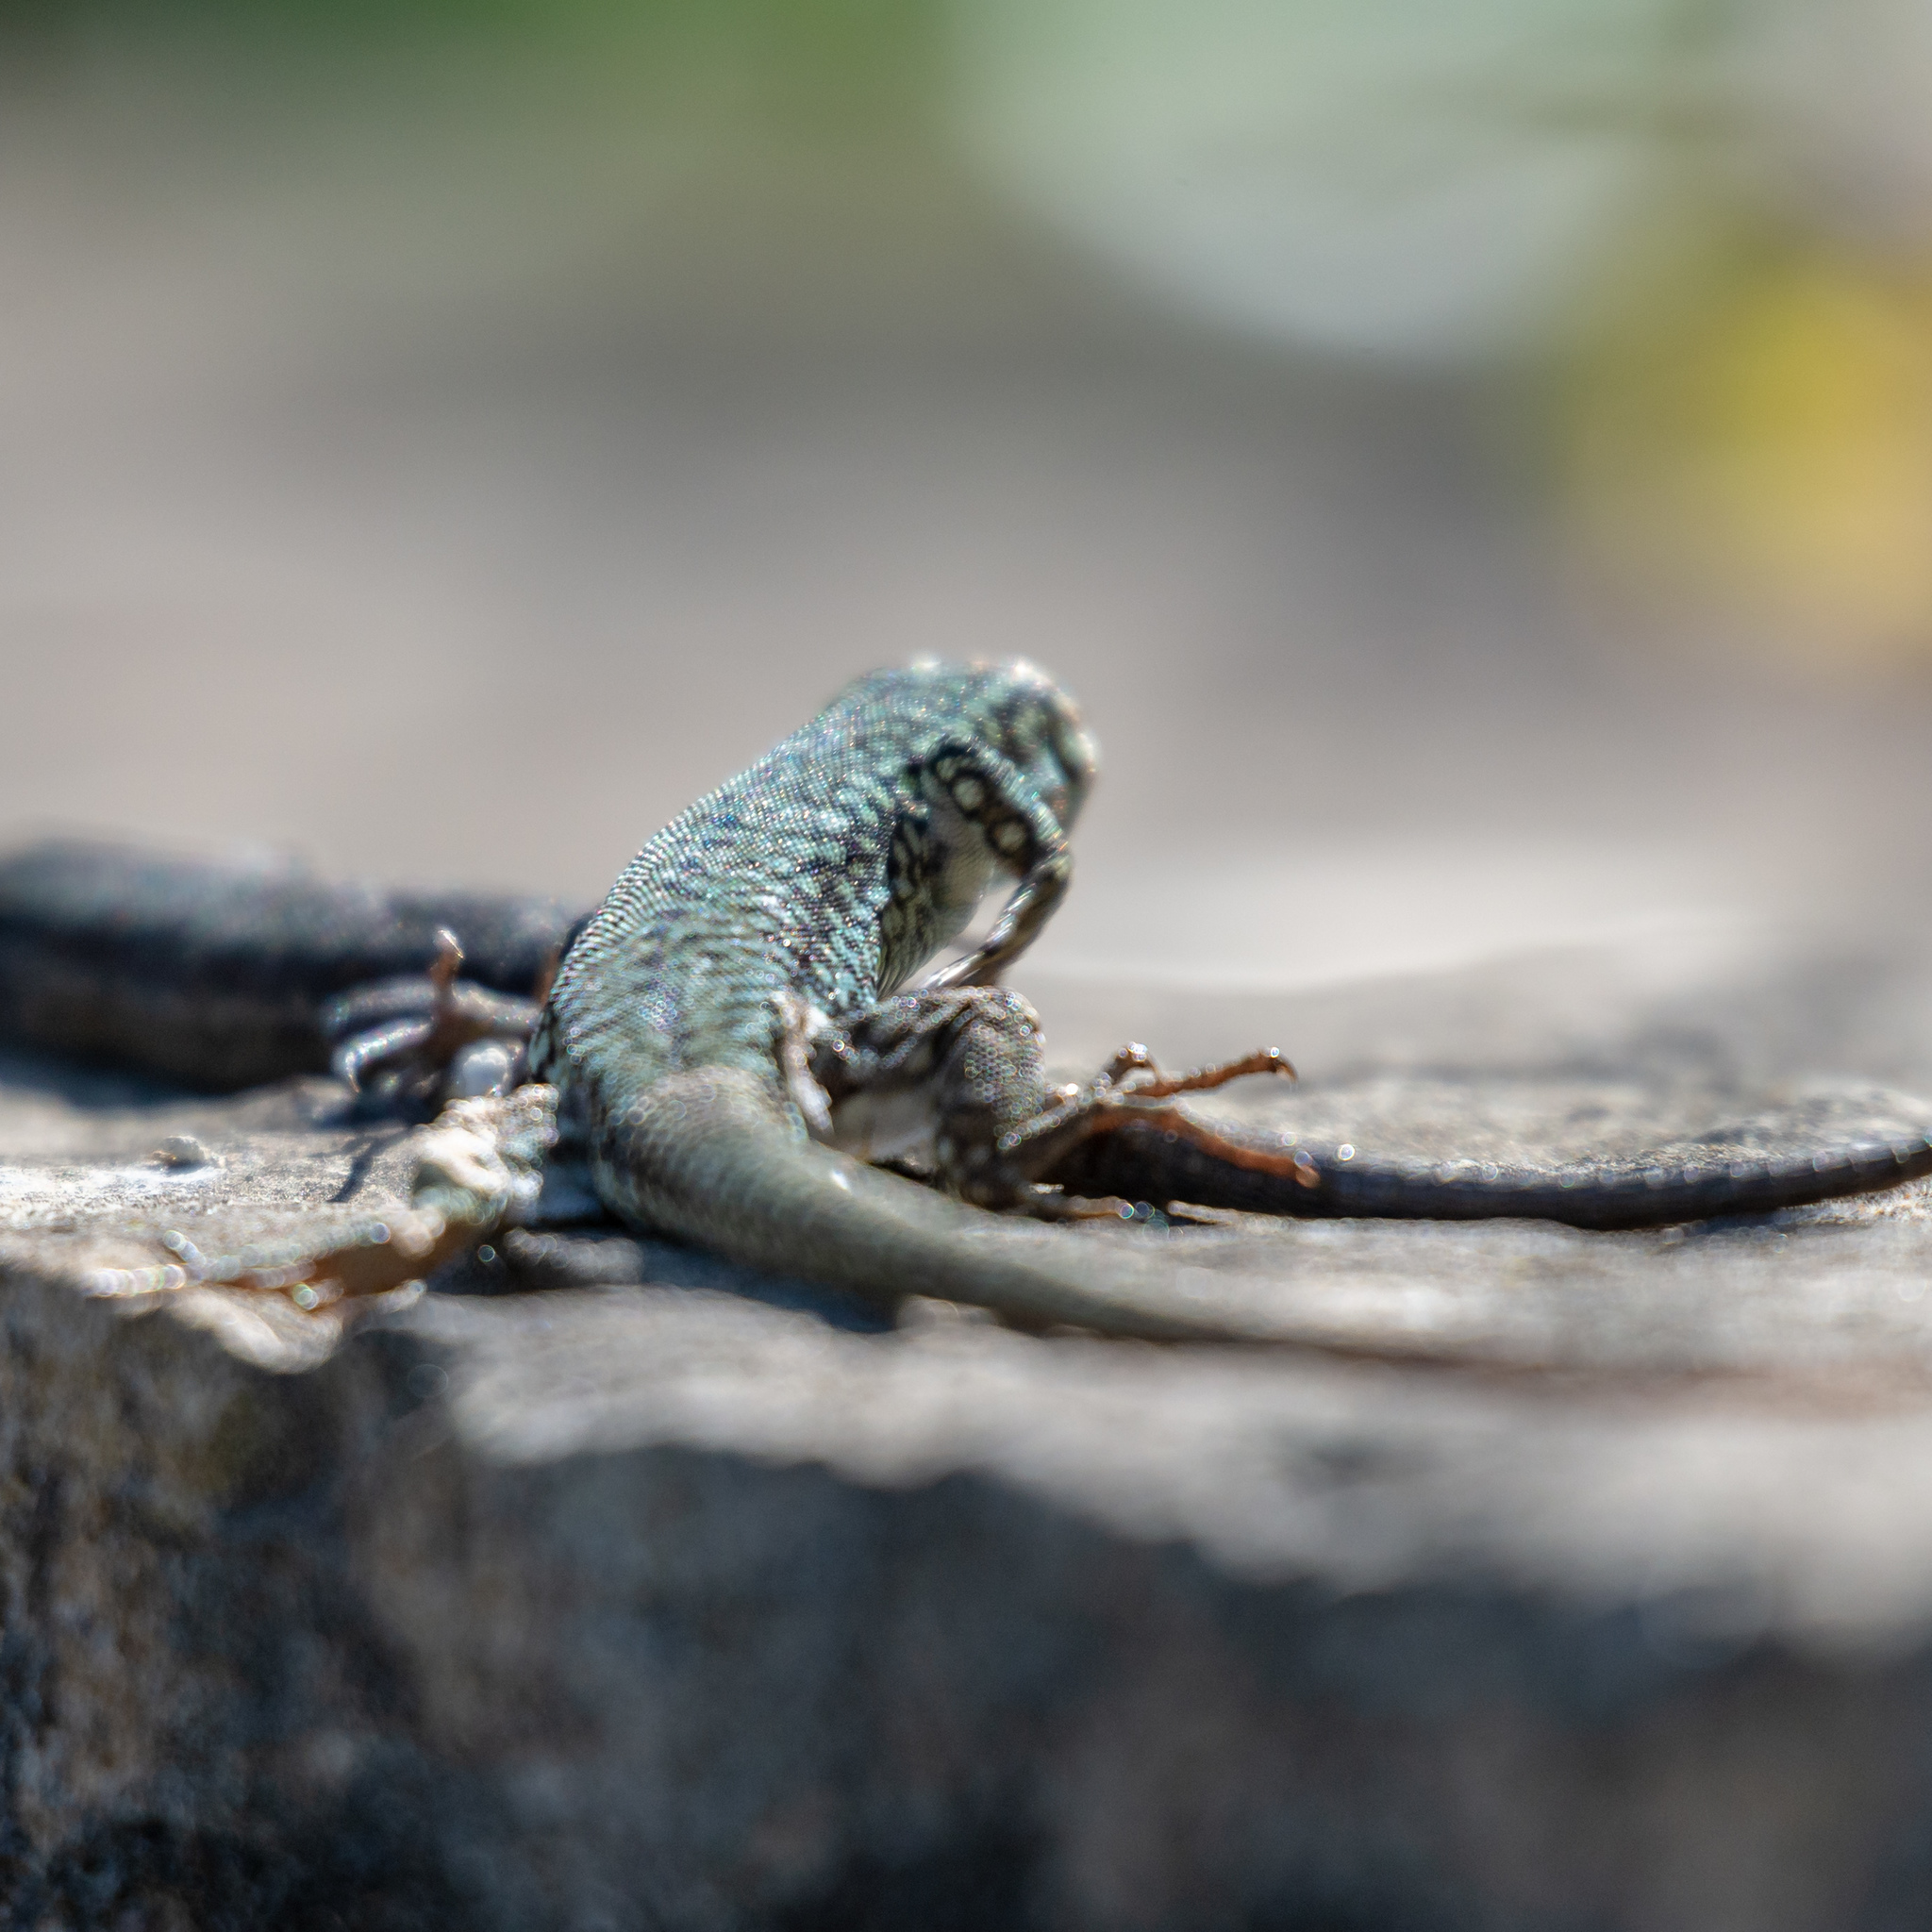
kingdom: Animalia
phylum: Chordata
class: Squamata
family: Lacertidae
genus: Podarcis
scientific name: Podarcis muralis
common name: Common wall lizard
